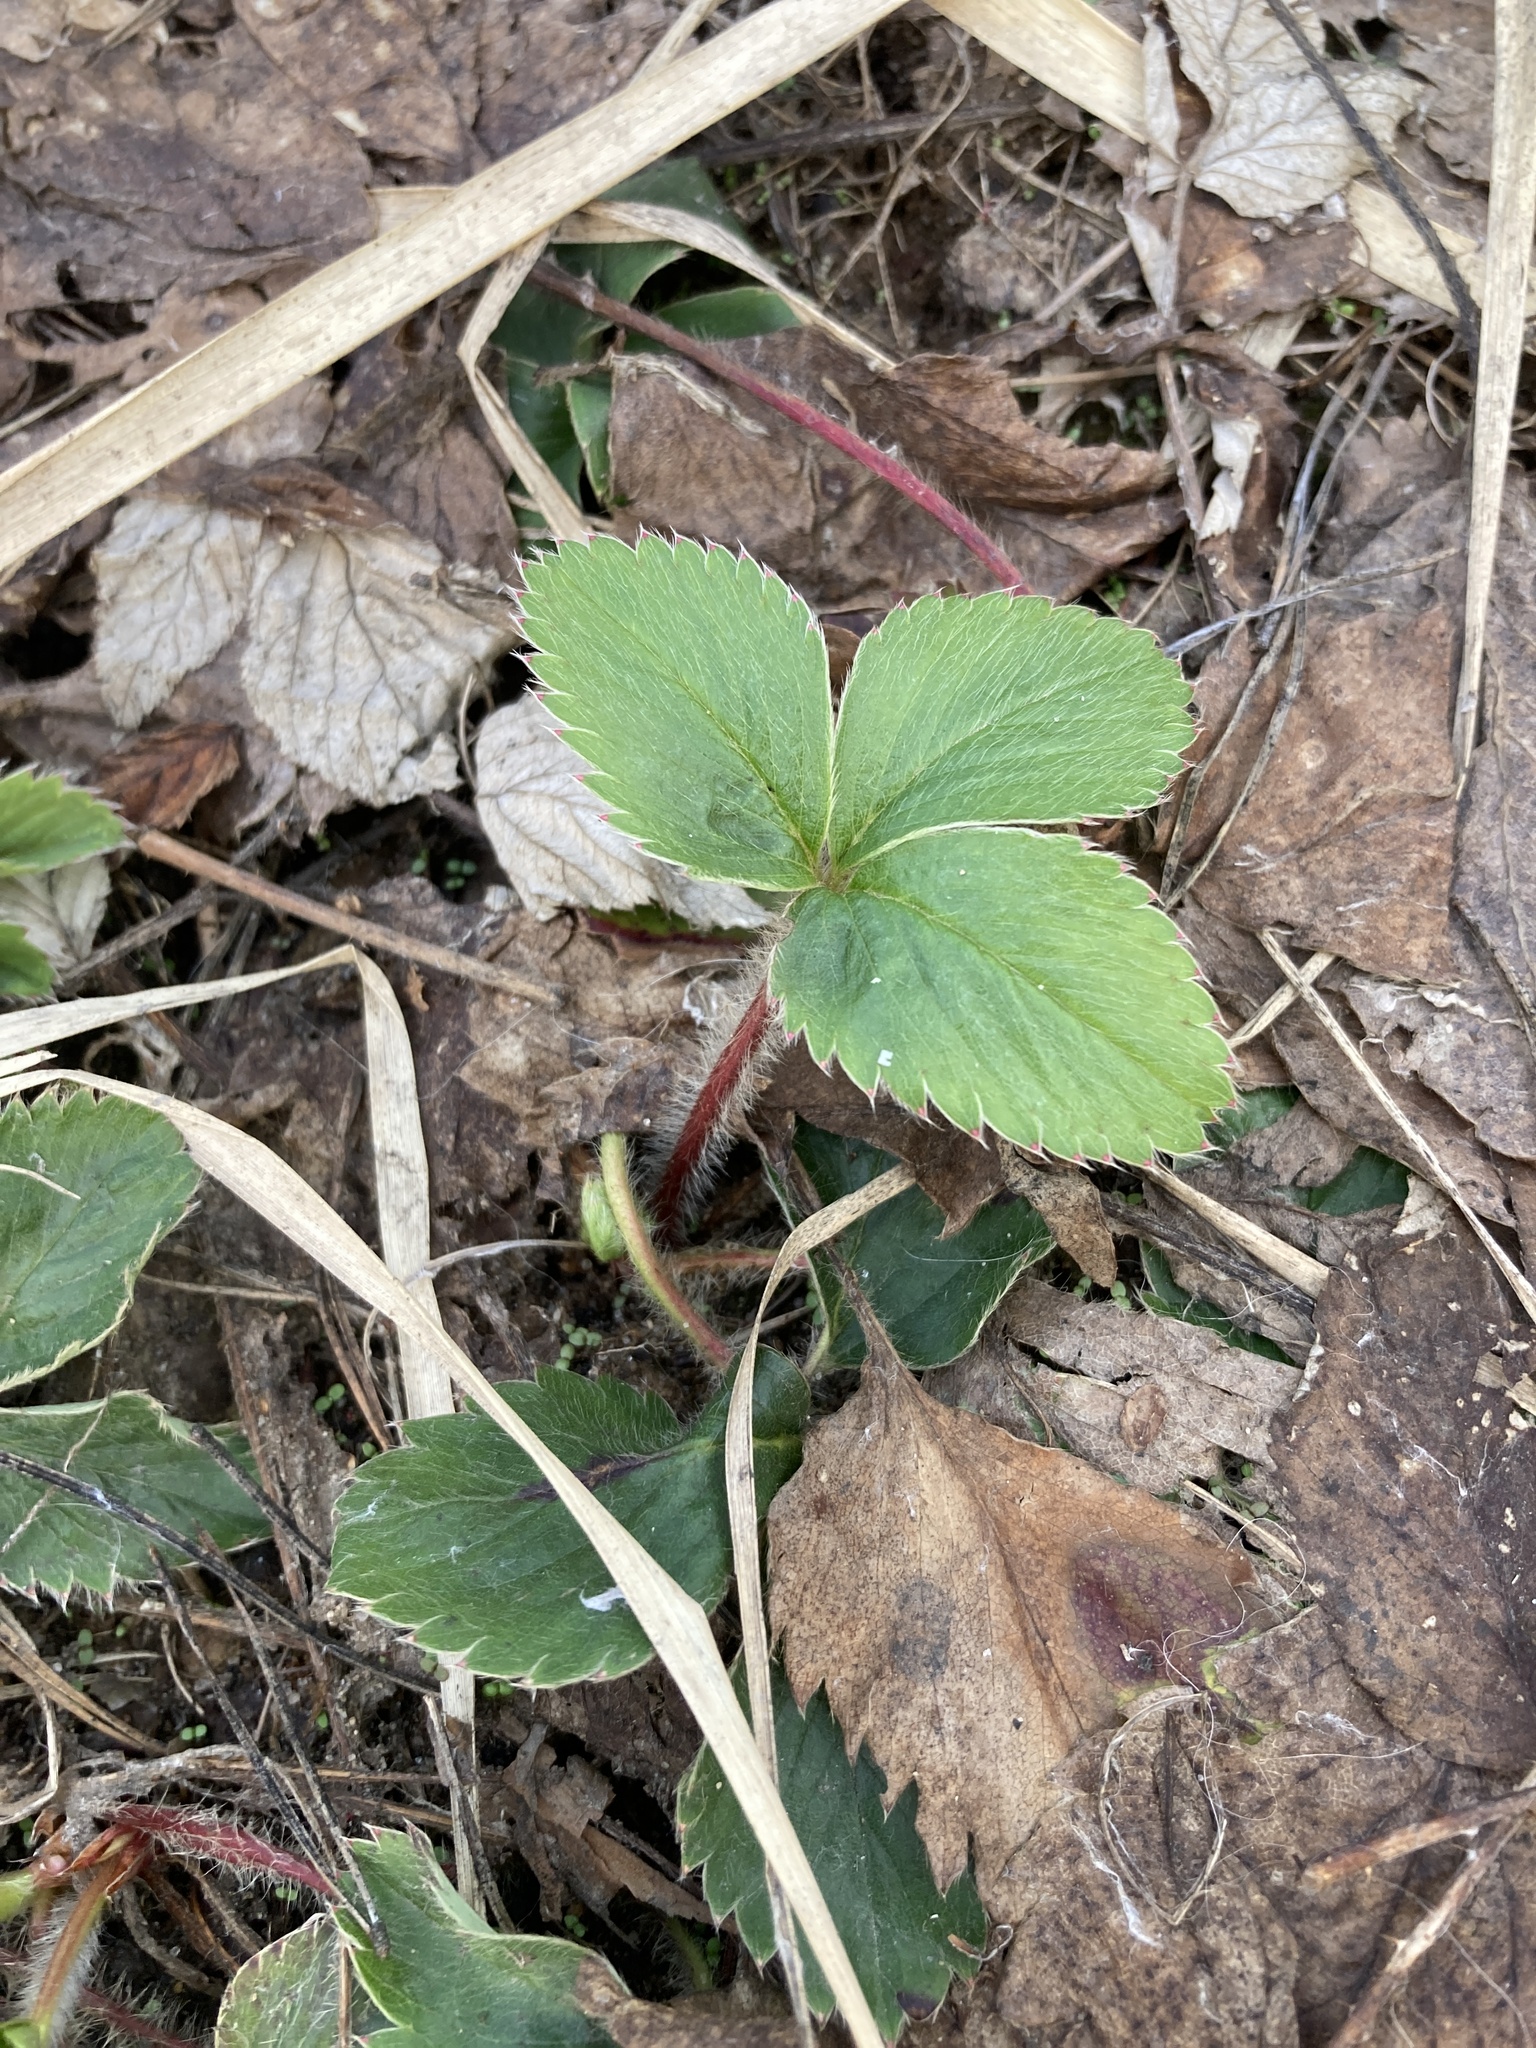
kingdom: Plantae
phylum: Tracheophyta
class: Magnoliopsida
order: Rosales
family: Rosaceae
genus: Fragaria
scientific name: Fragaria vesca
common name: Wild strawberry
